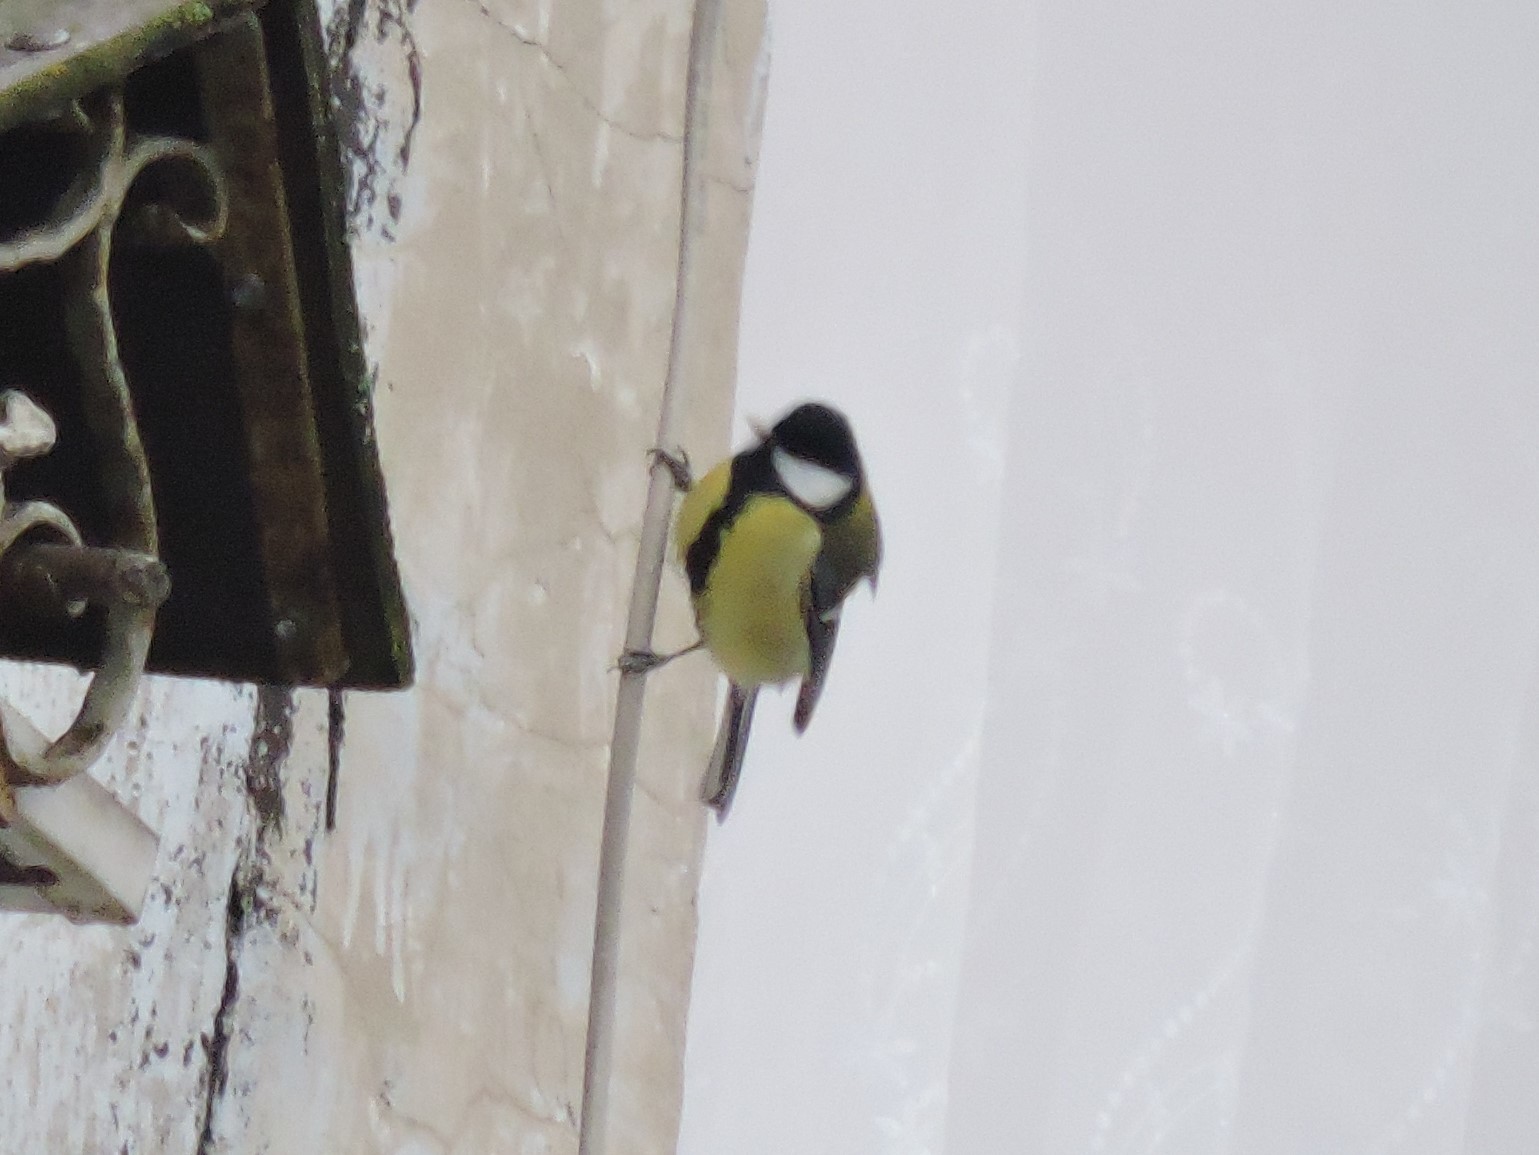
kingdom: Animalia
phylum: Chordata
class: Aves
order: Passeriformes
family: Paridae
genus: Parus
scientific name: Parus major
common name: Great tit
